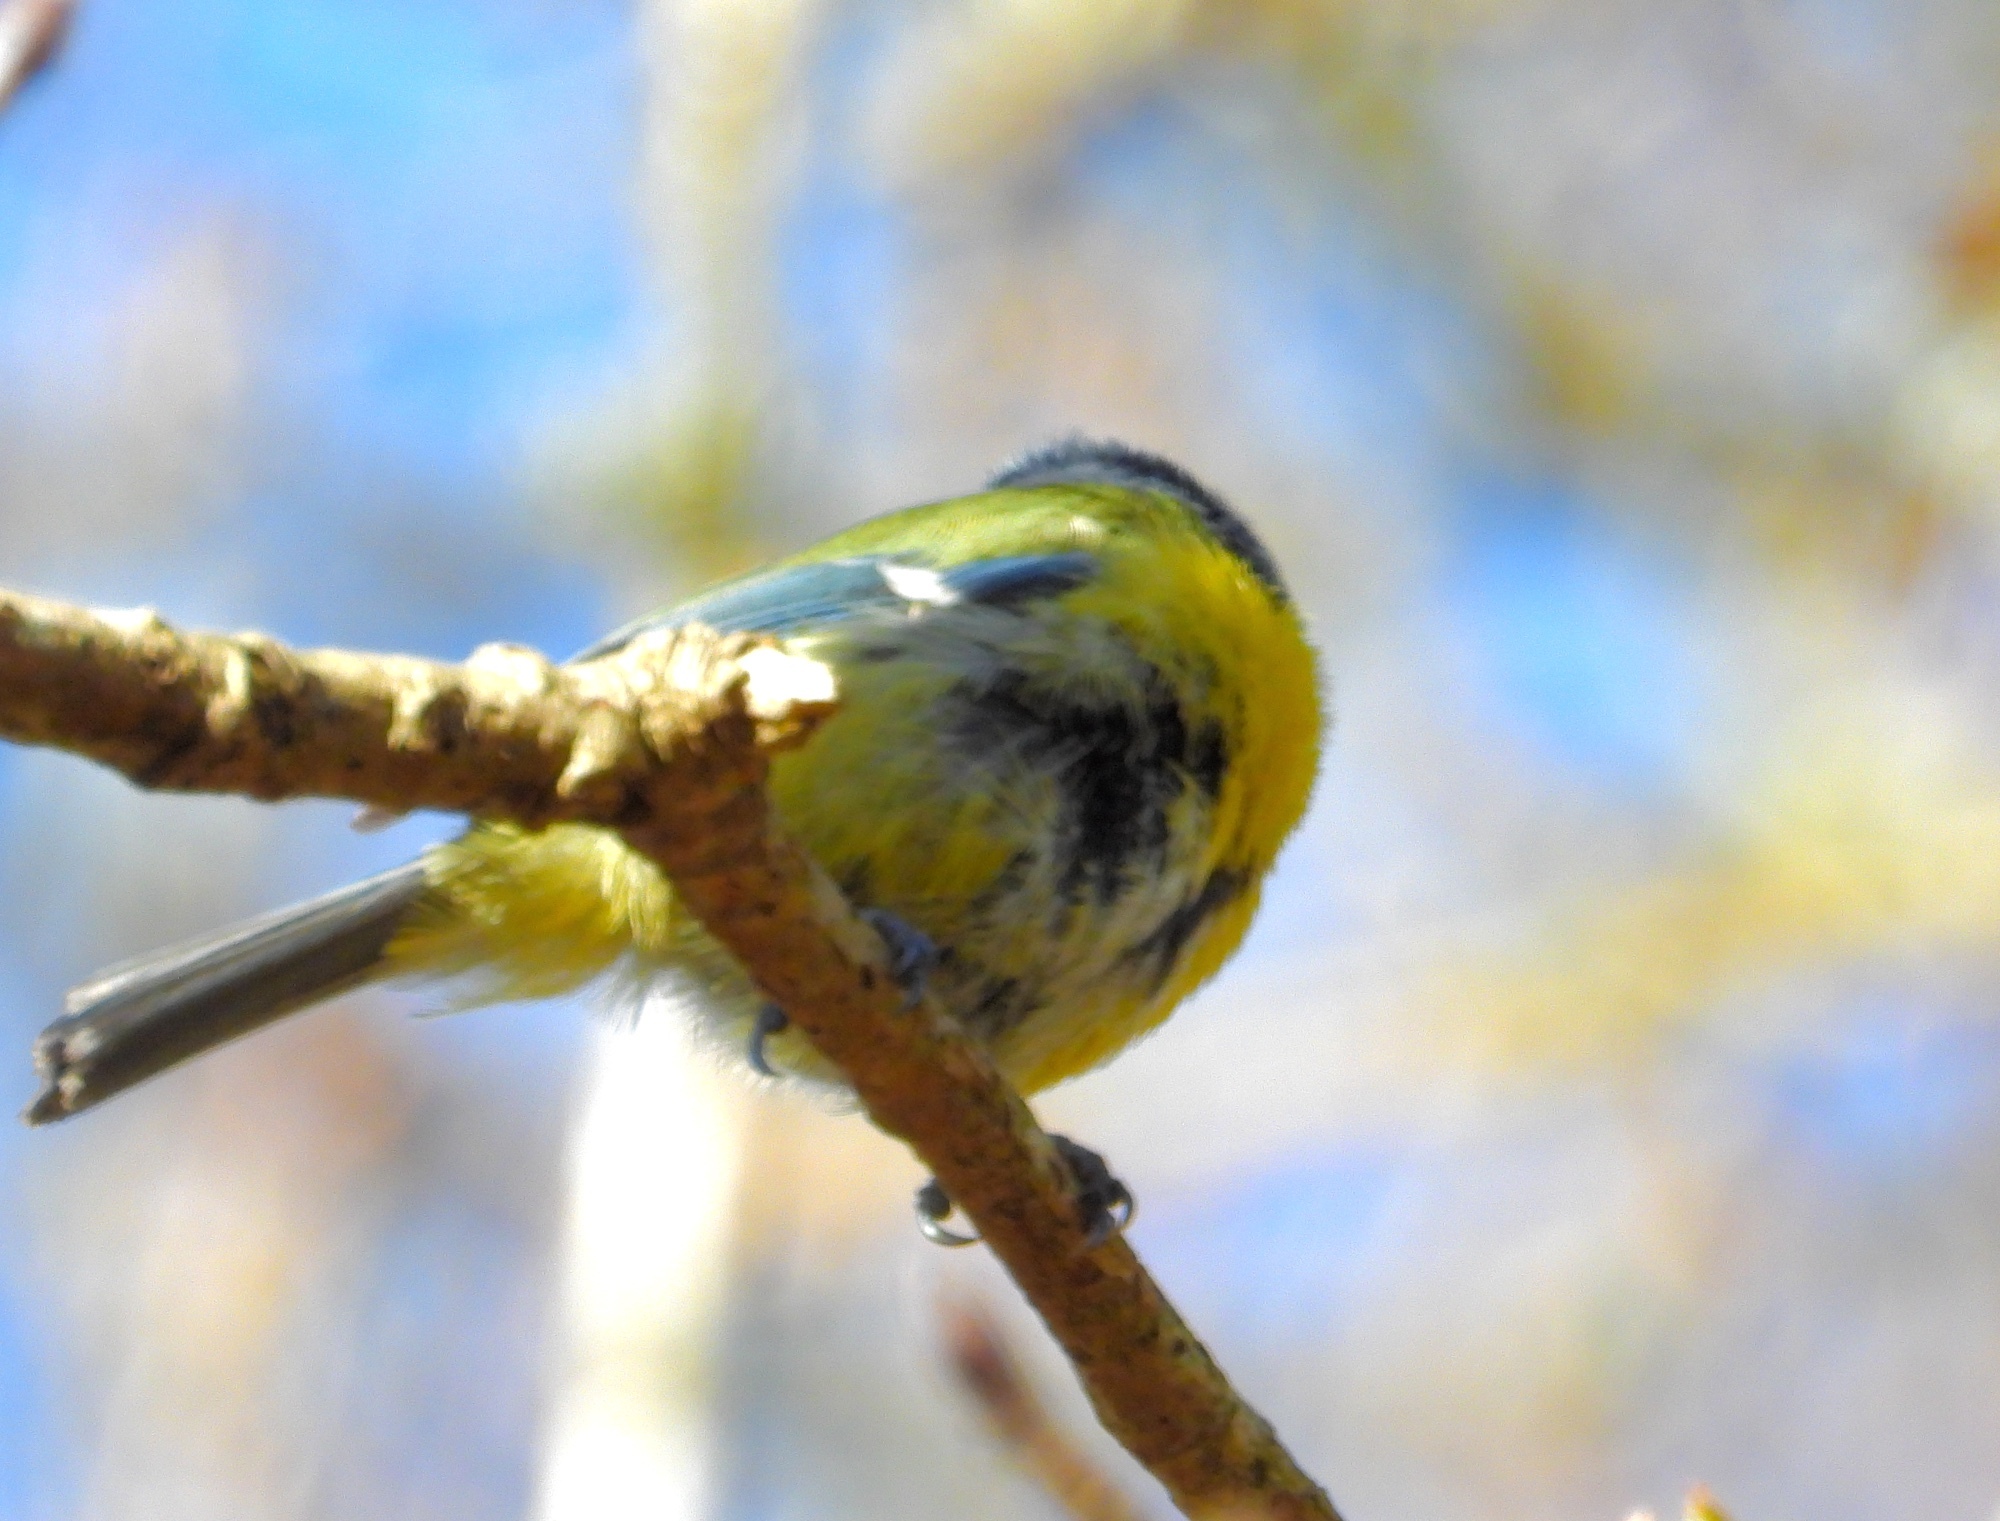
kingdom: Animalia
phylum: Chordata
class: Aves
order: Passeriformes
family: Paridae
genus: Cyanistes
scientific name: Cyanistes caeruleus
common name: Eurasian blue tit
